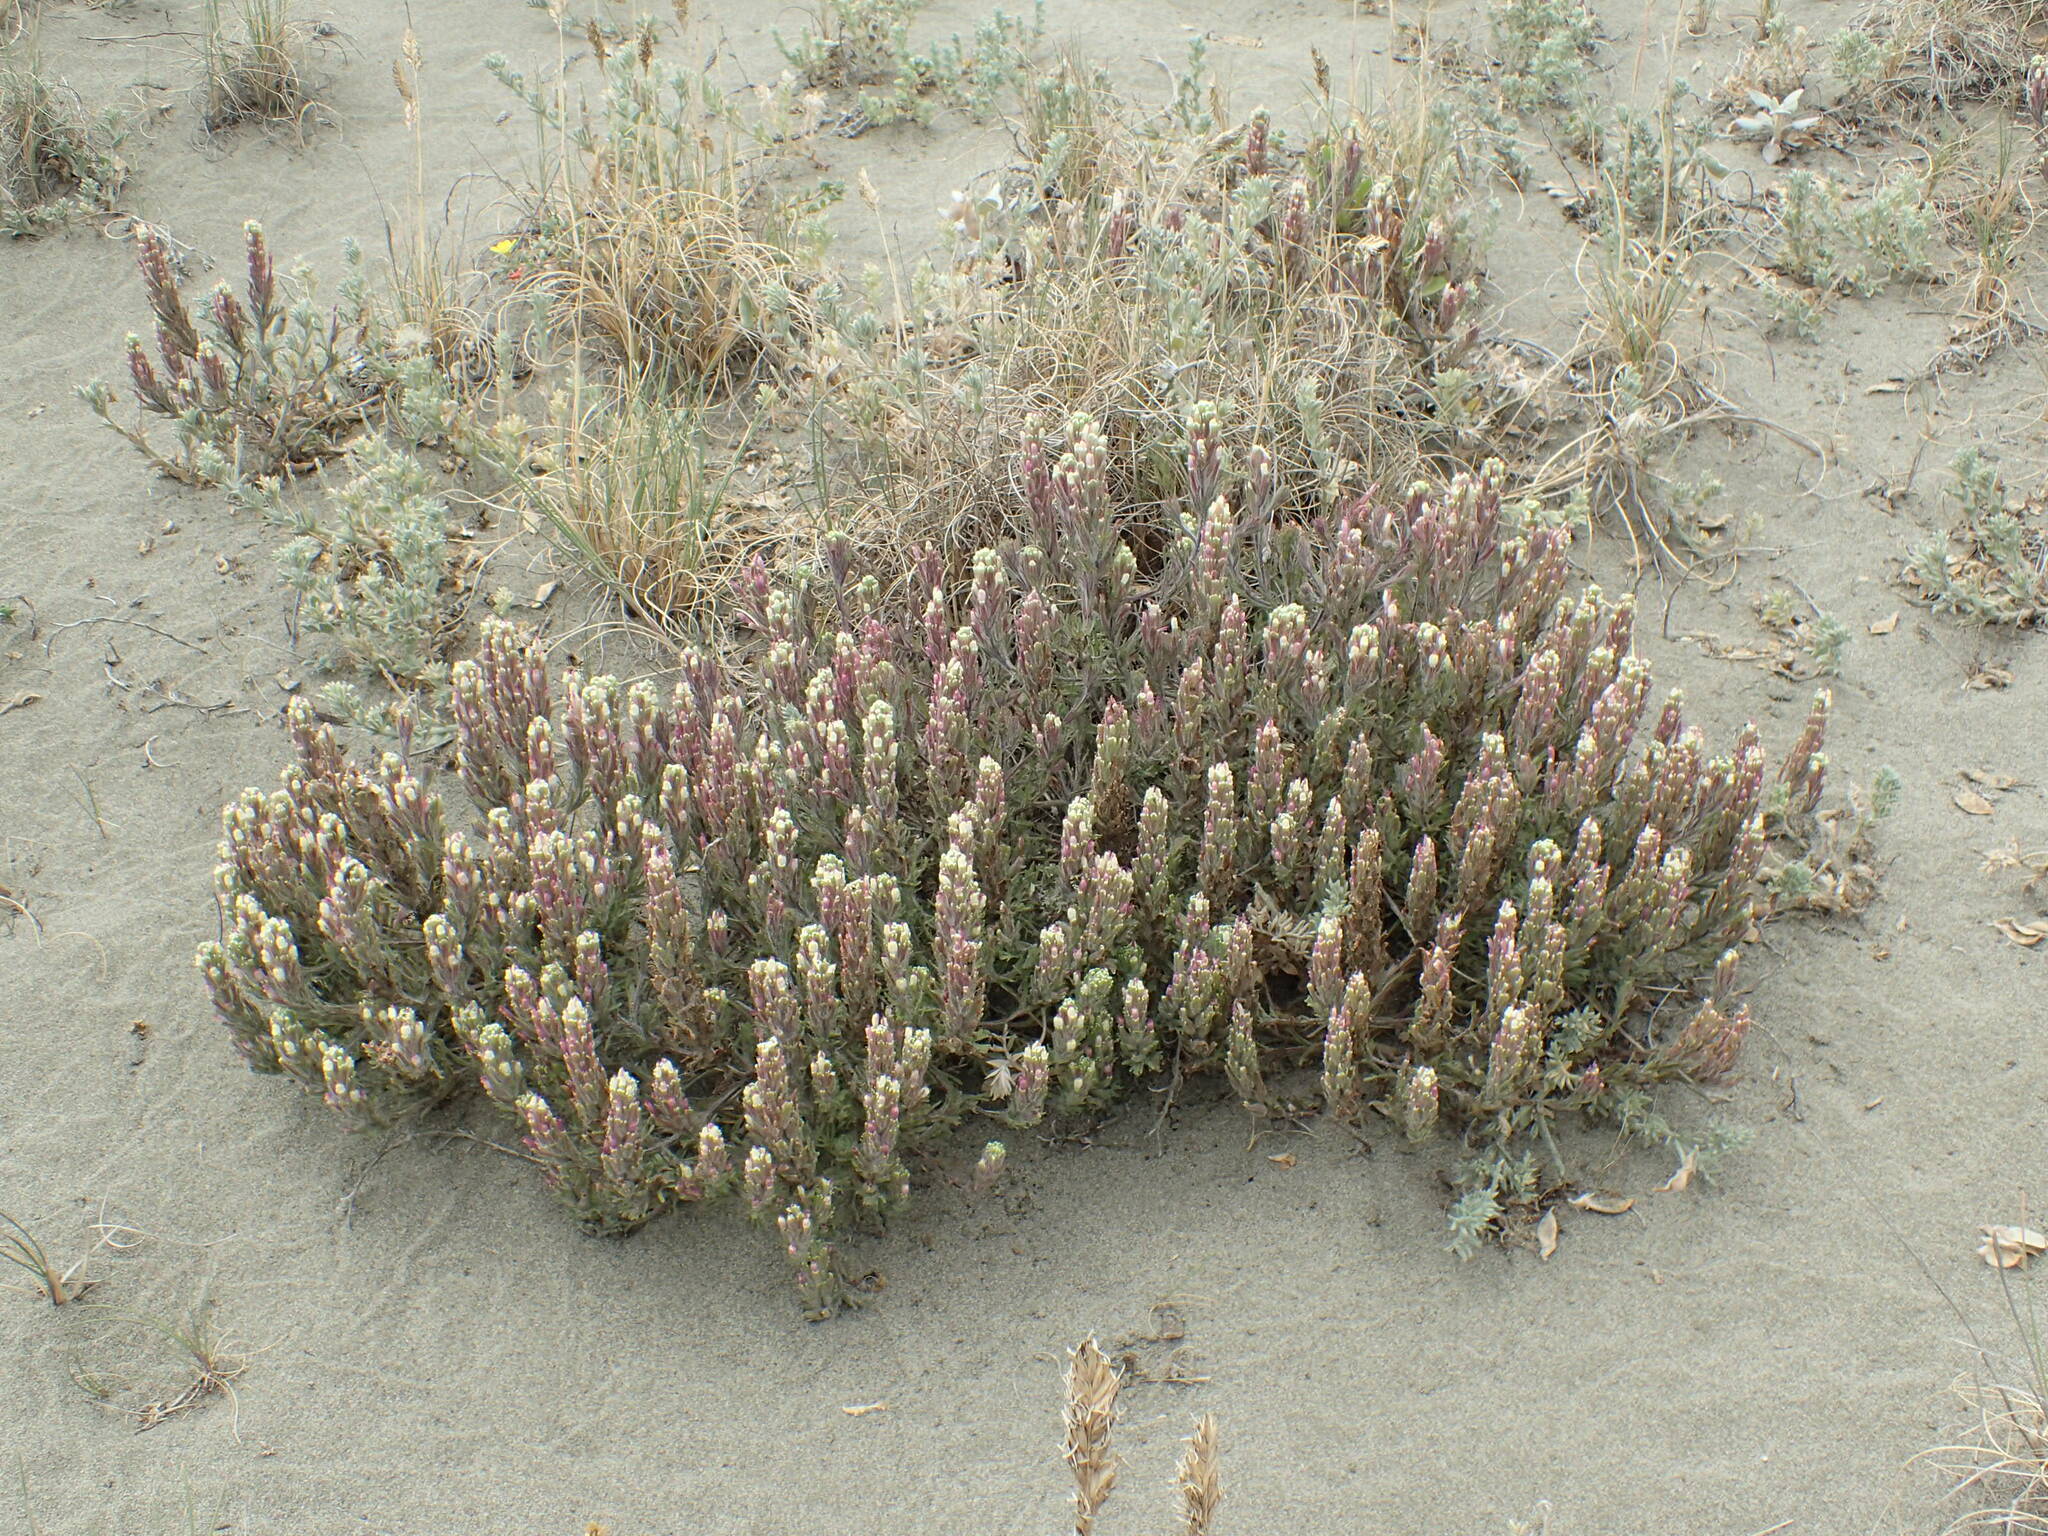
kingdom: Plantae
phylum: Tracheophyta
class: Magnoliopsida
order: Lamiales
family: Orobanchaceae
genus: Castilleja
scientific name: Castilleja exserta
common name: Purple owl-clover
